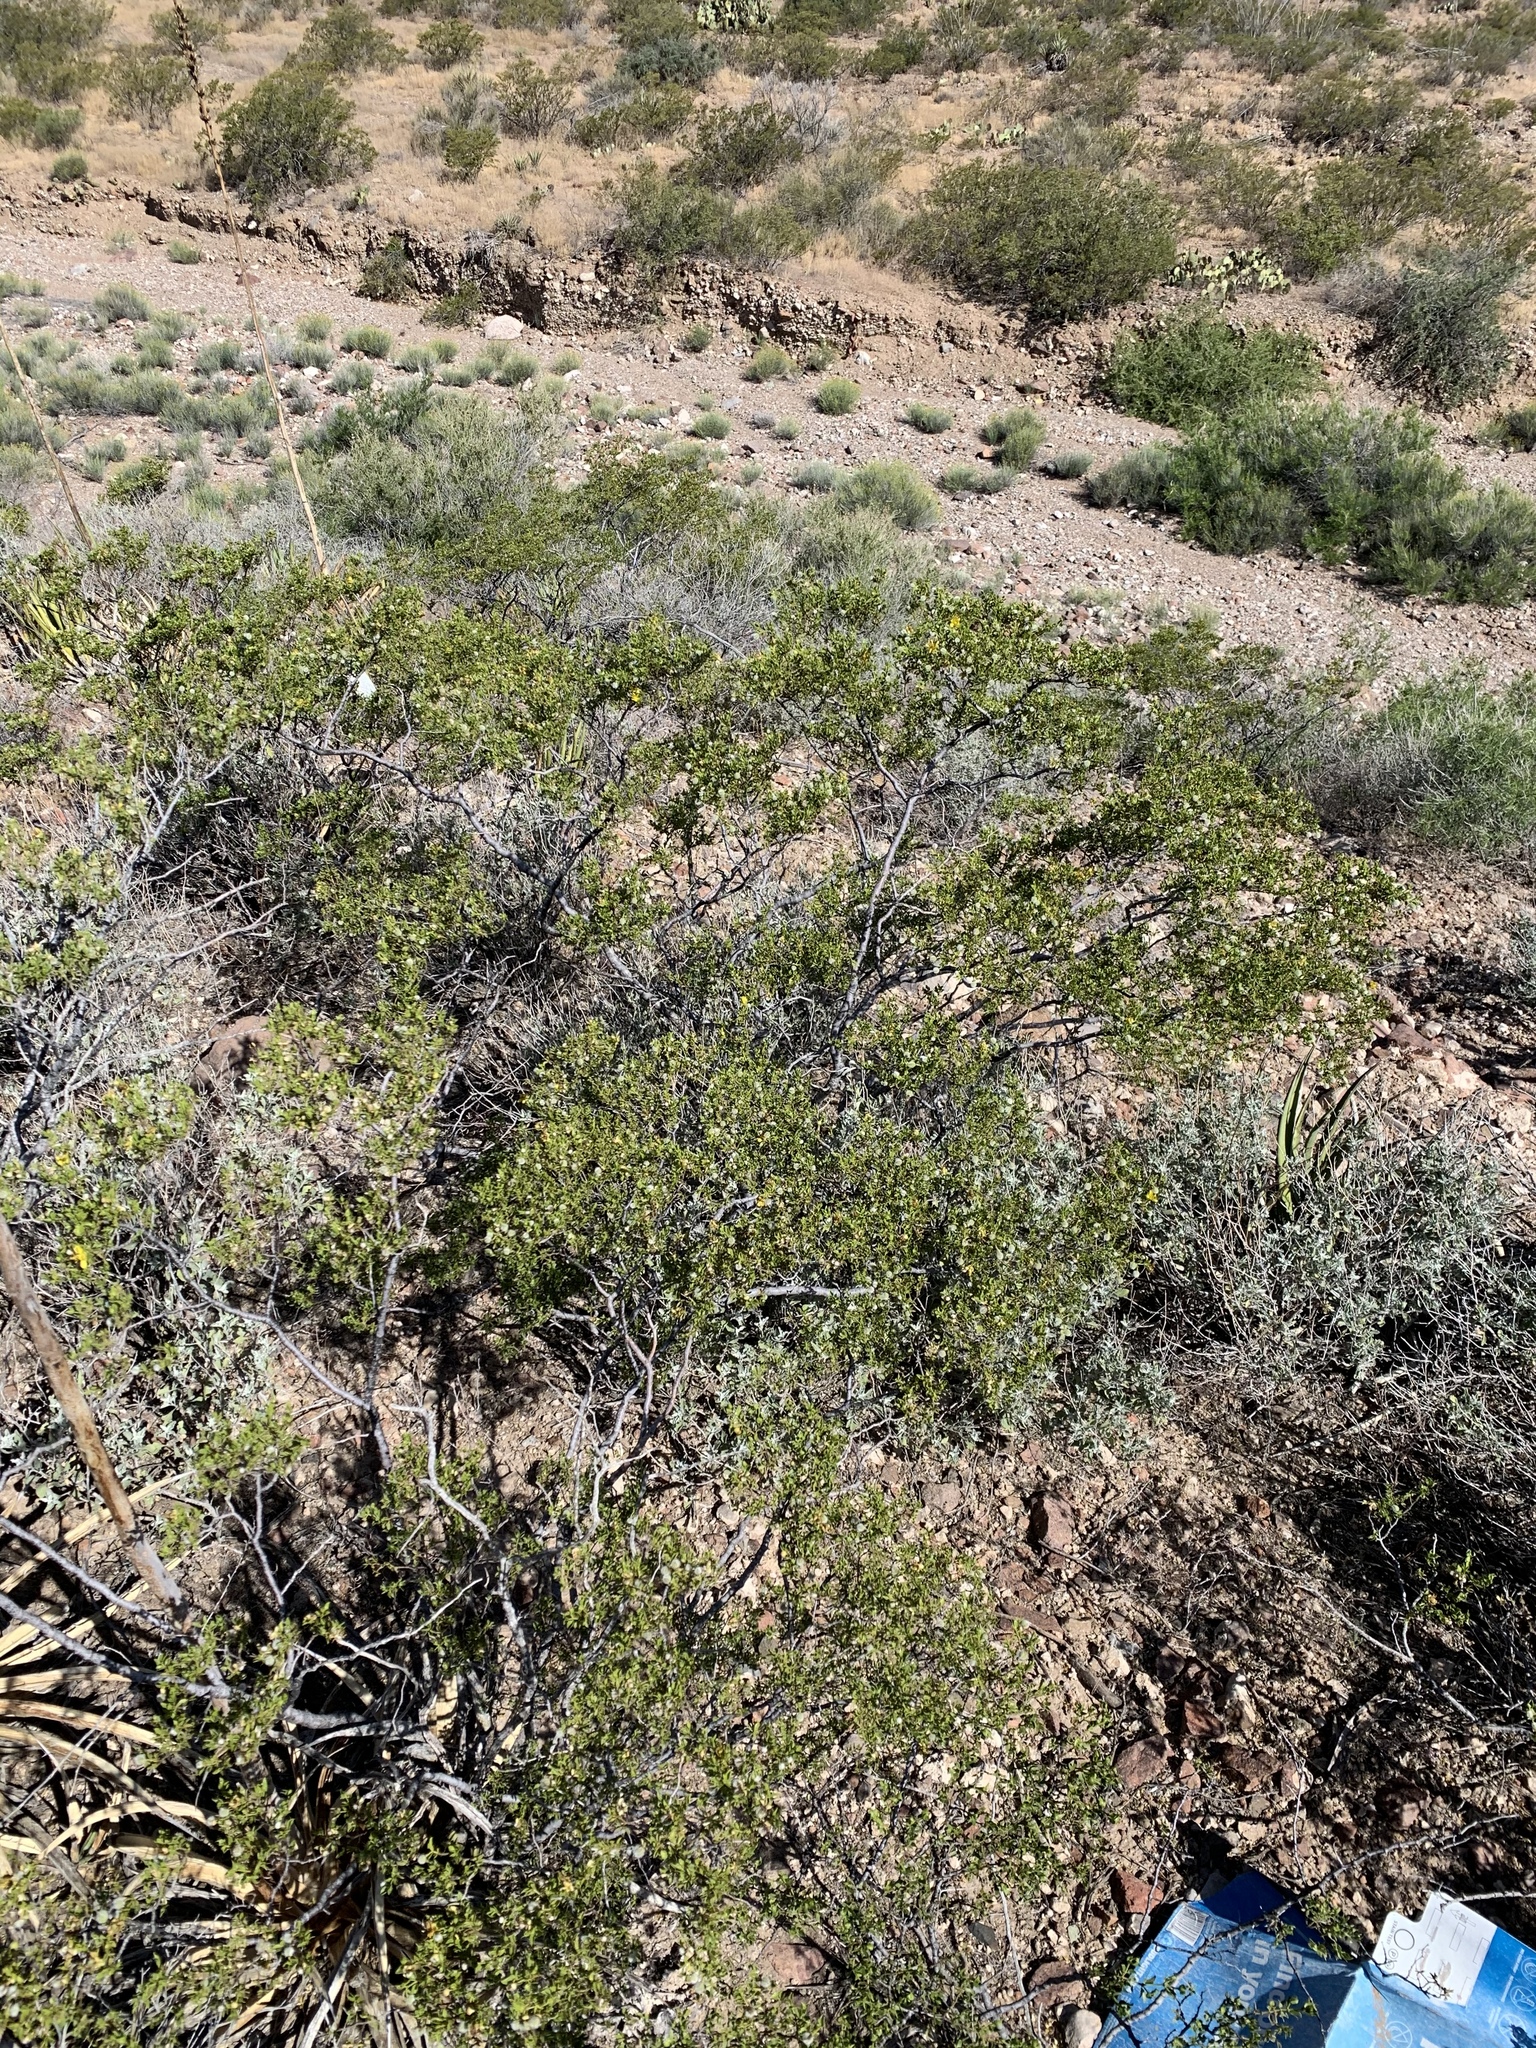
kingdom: Plantae
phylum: Tracheophyta
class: Magnoliopsida
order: Zygophyllales
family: Zygophyllaceae
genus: Larrea
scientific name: Larrea tridentata
